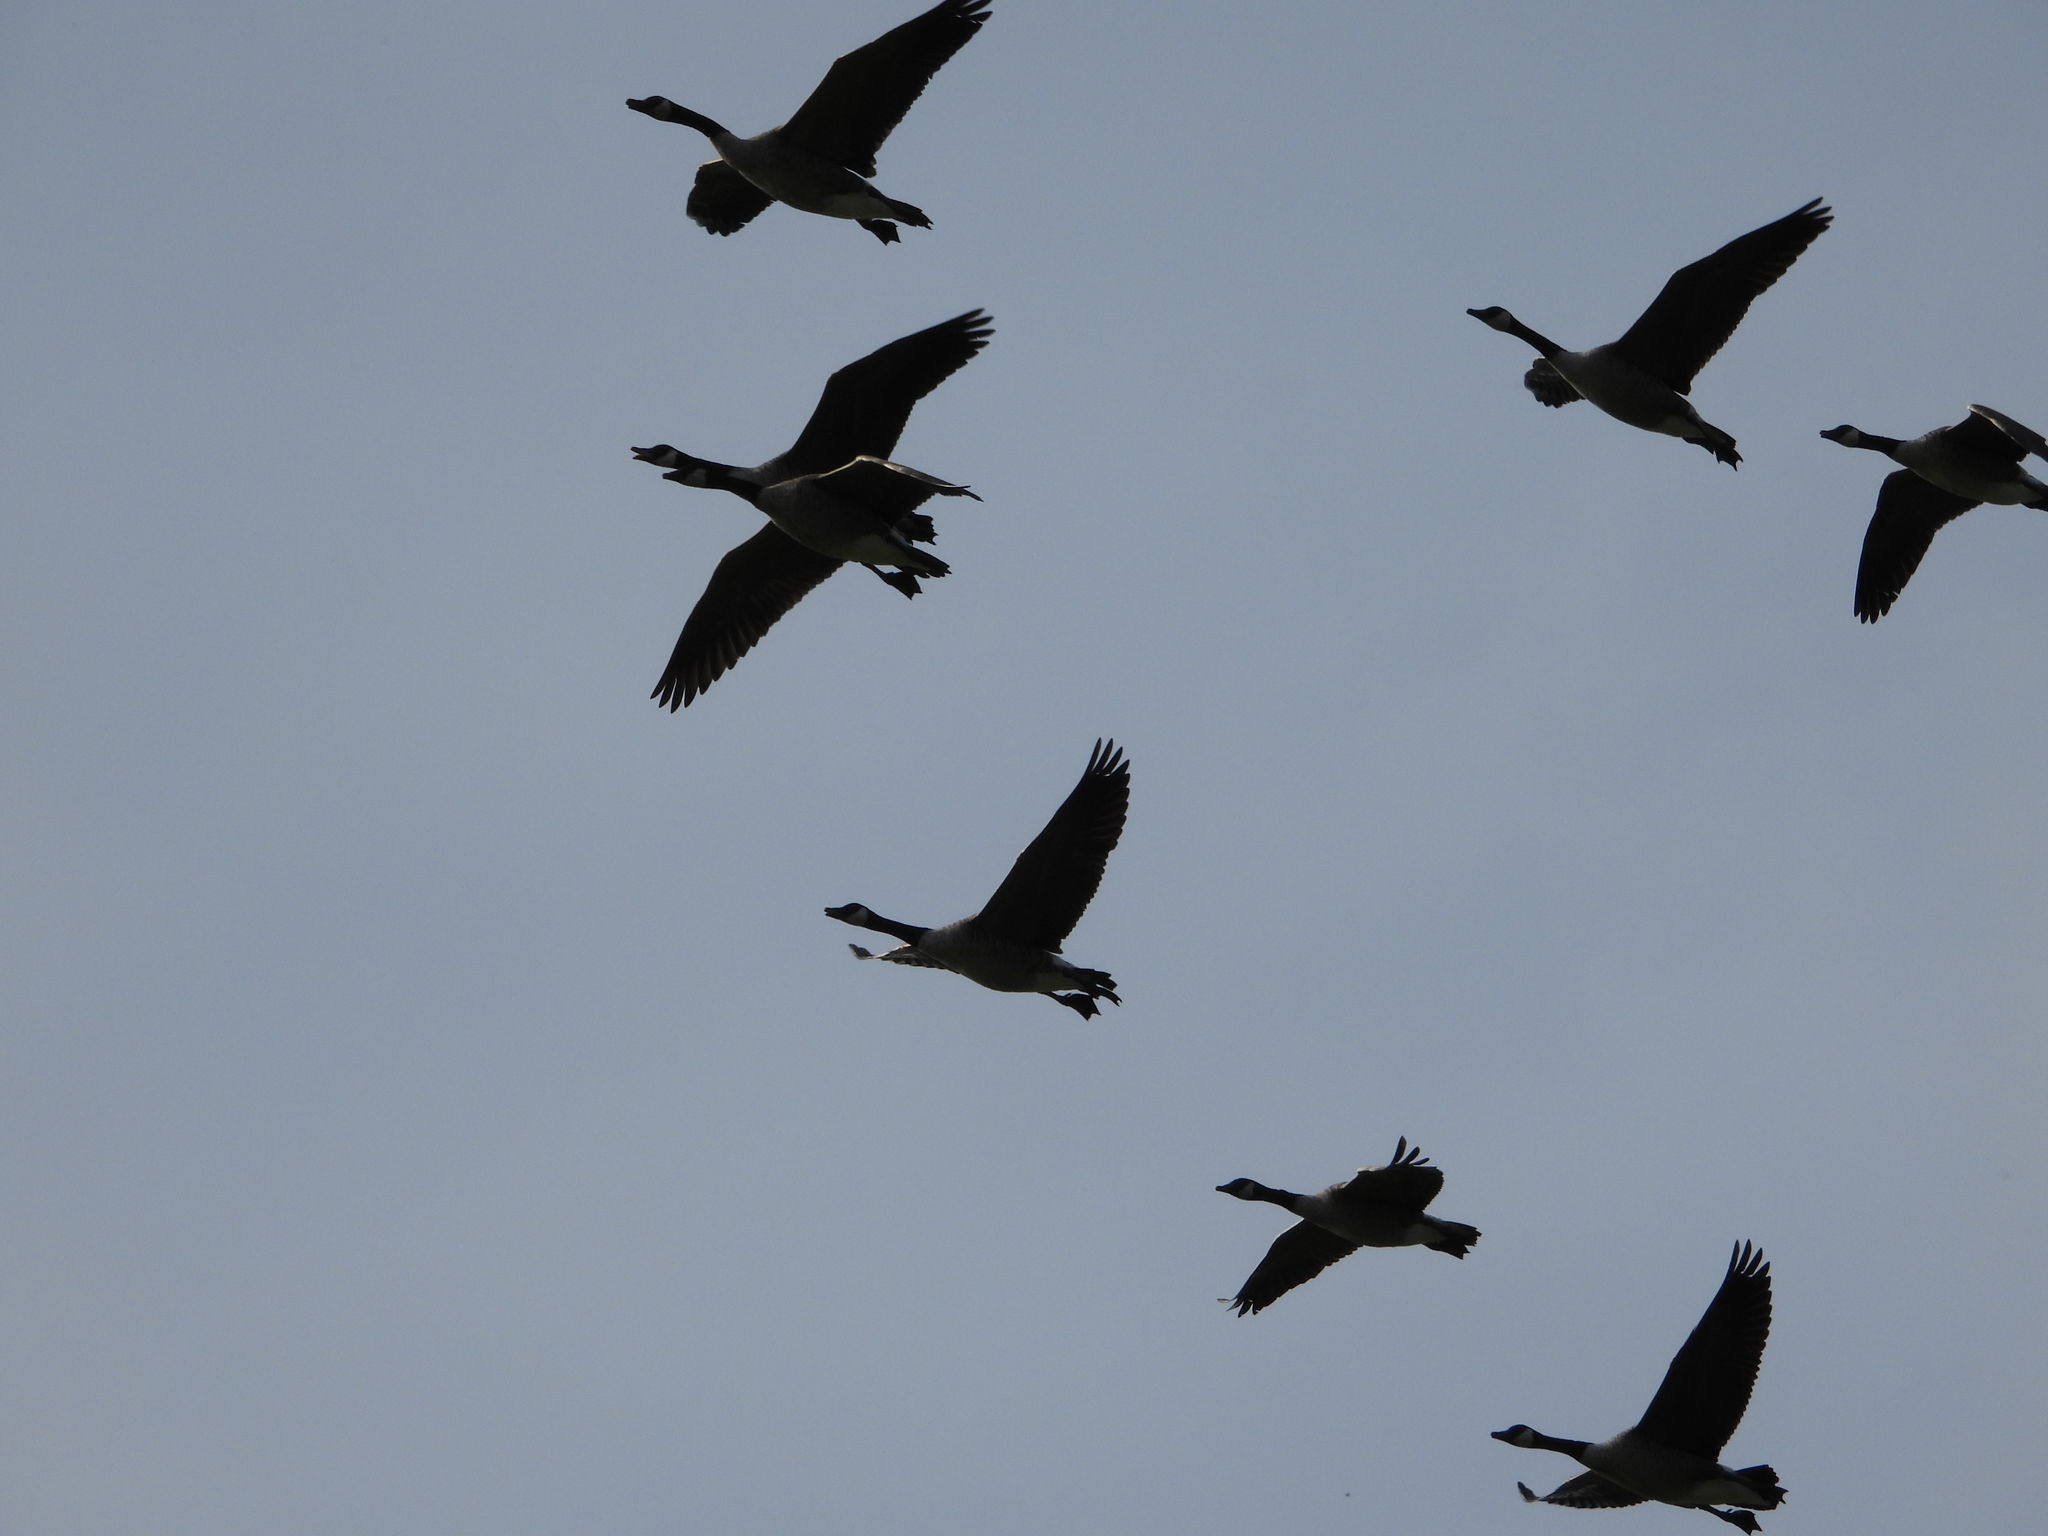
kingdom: Animalia
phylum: Chordata
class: Aves
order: Anseriformes
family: Anatidae
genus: Branta
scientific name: Branta canadensis
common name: Canada goose
